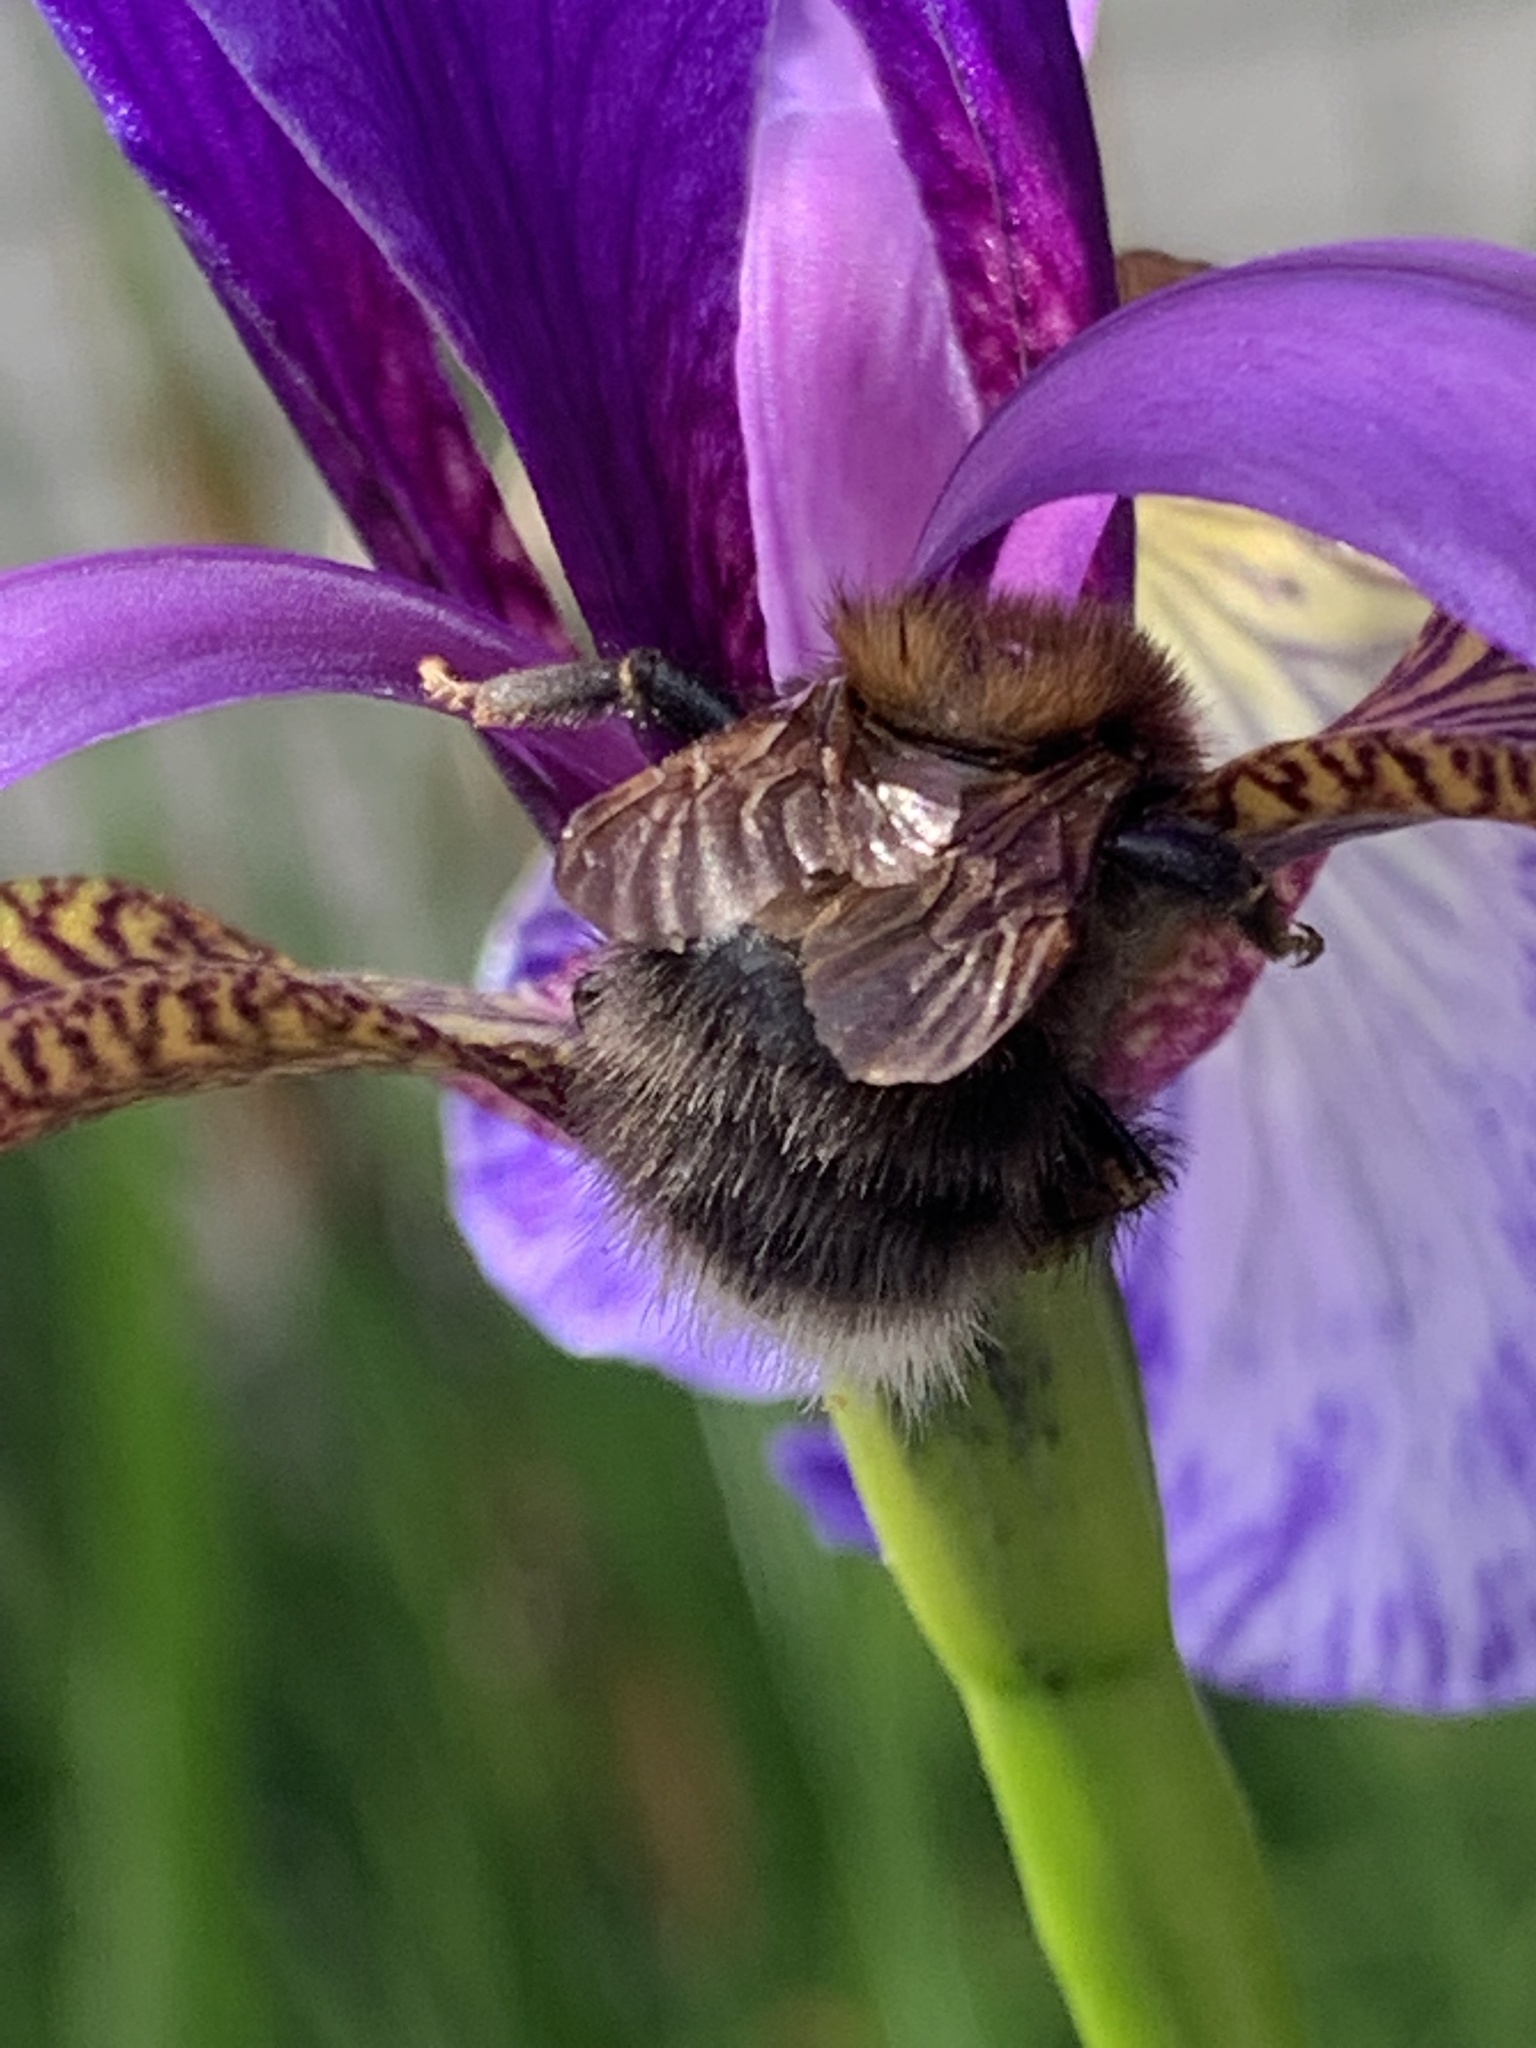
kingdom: Animalia
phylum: Arthropoda
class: Insecta
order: Hymenoptera
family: Apidae
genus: Bombus
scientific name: Bombus hypnorum
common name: New garden bumblebee
